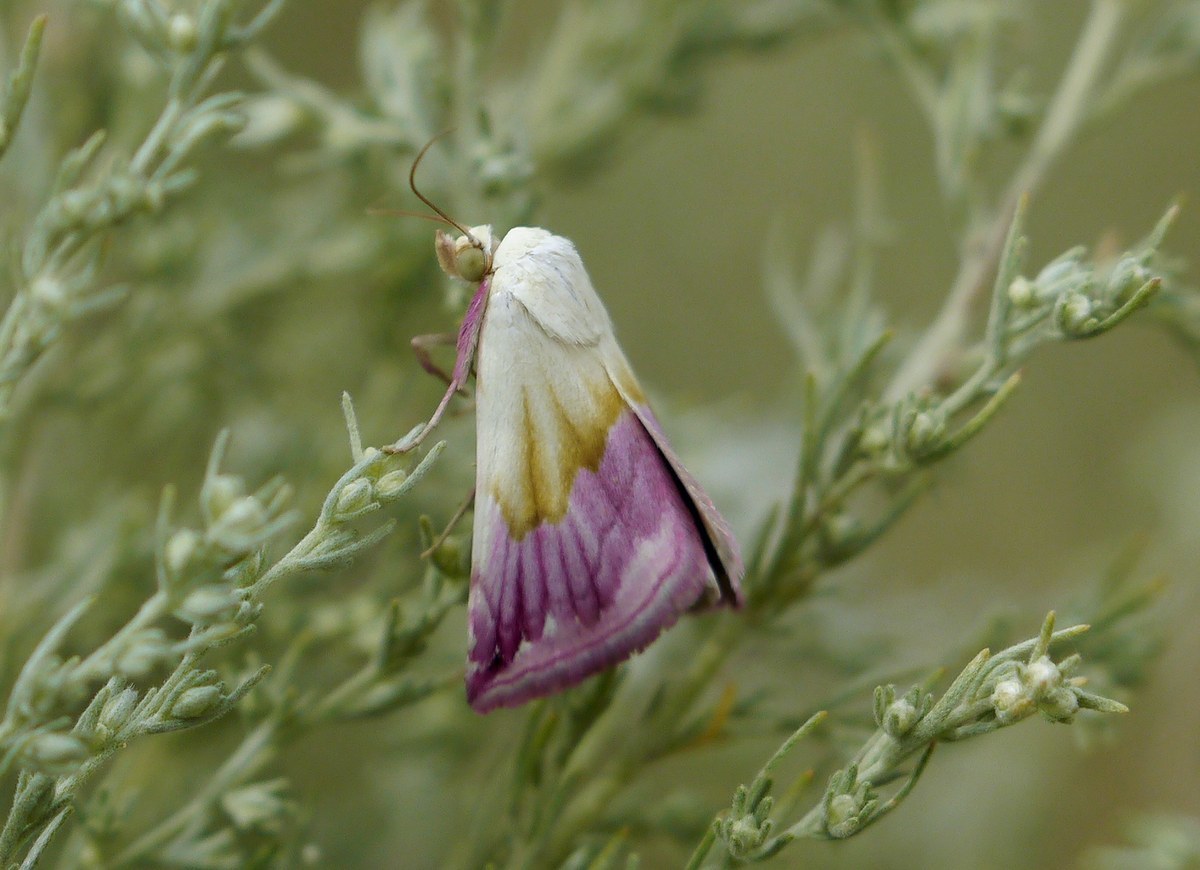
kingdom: Animalia
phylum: Arthropoda
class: Insecta
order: Lepidoptera
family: Noctuidae
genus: Eublemma
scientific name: Eublemma purpurina
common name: Beautiful marbled
